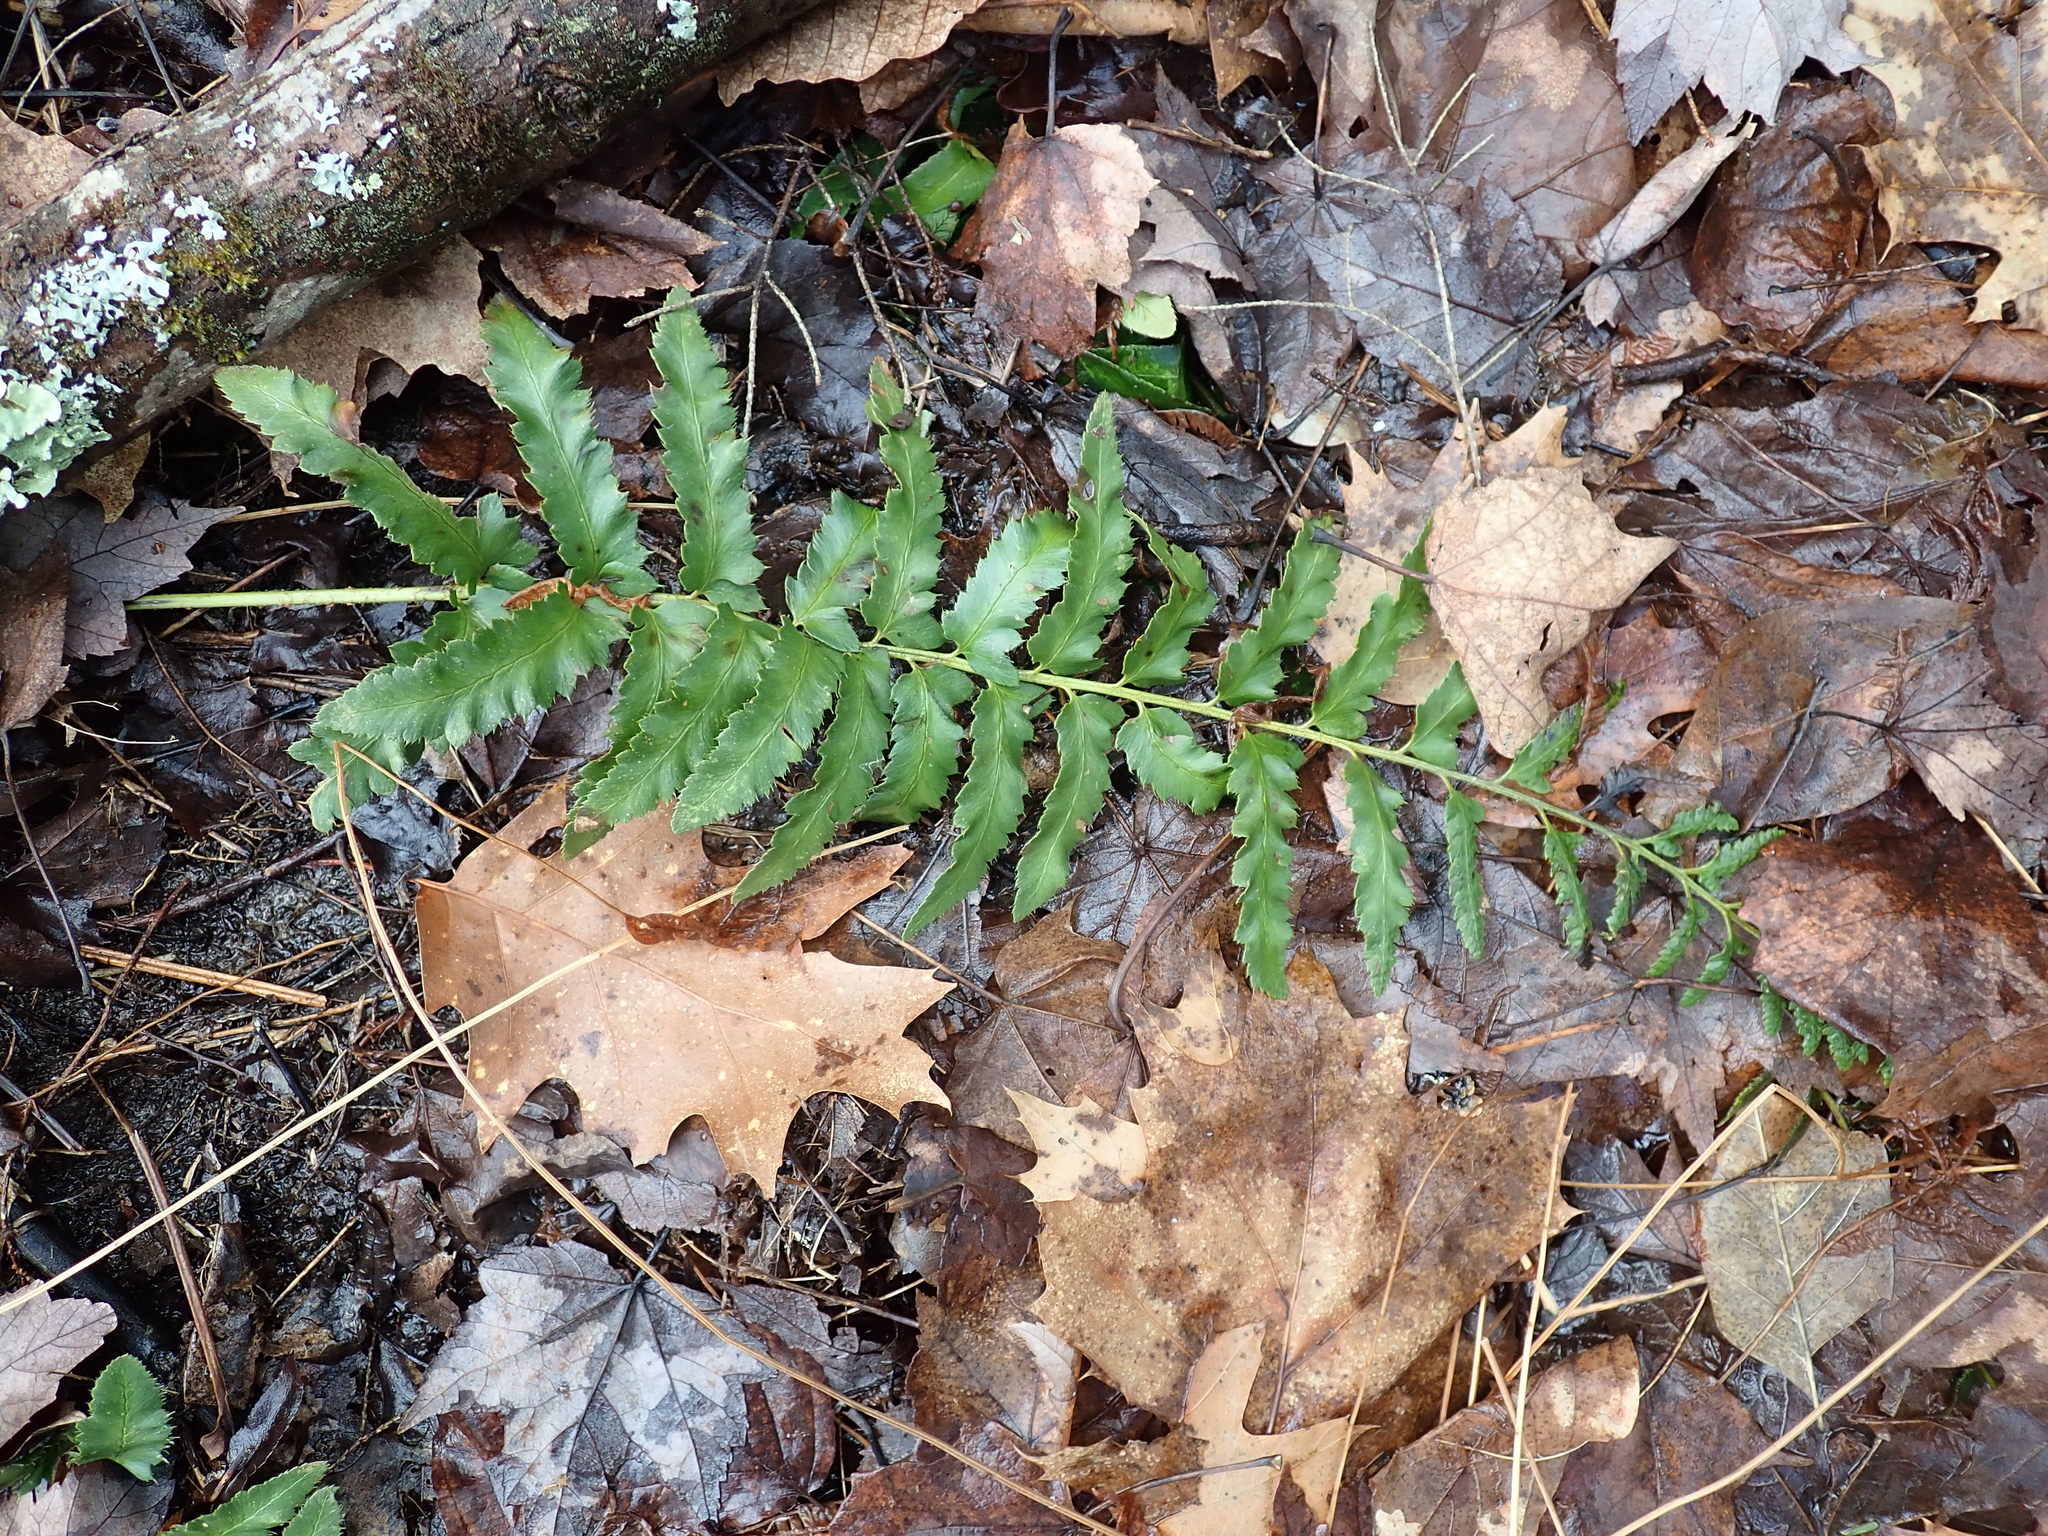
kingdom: Plantae
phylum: Tracheophyta
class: Polypodiopsida
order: Polypodiales
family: Dryopteridaceae
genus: Polystichum
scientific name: Polystichum acrostichoides
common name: Christmas fern
